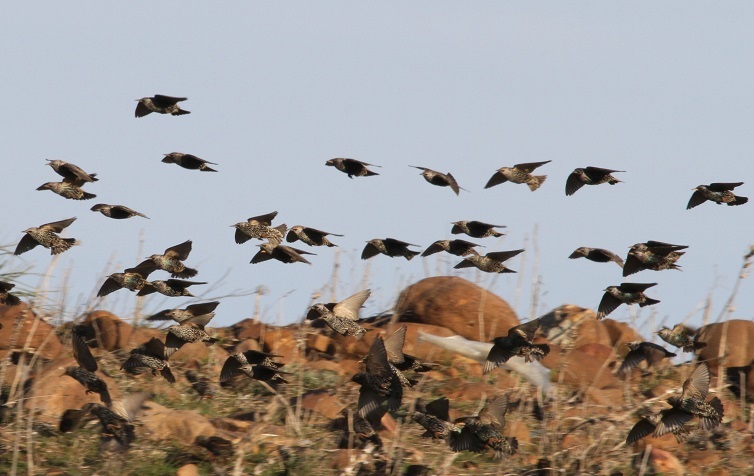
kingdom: Animalia
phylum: Chordata
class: Aves
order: Passeriformes
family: Sturnidae
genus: Sturnus
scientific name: Sturnus vulgaris
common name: Common starling
